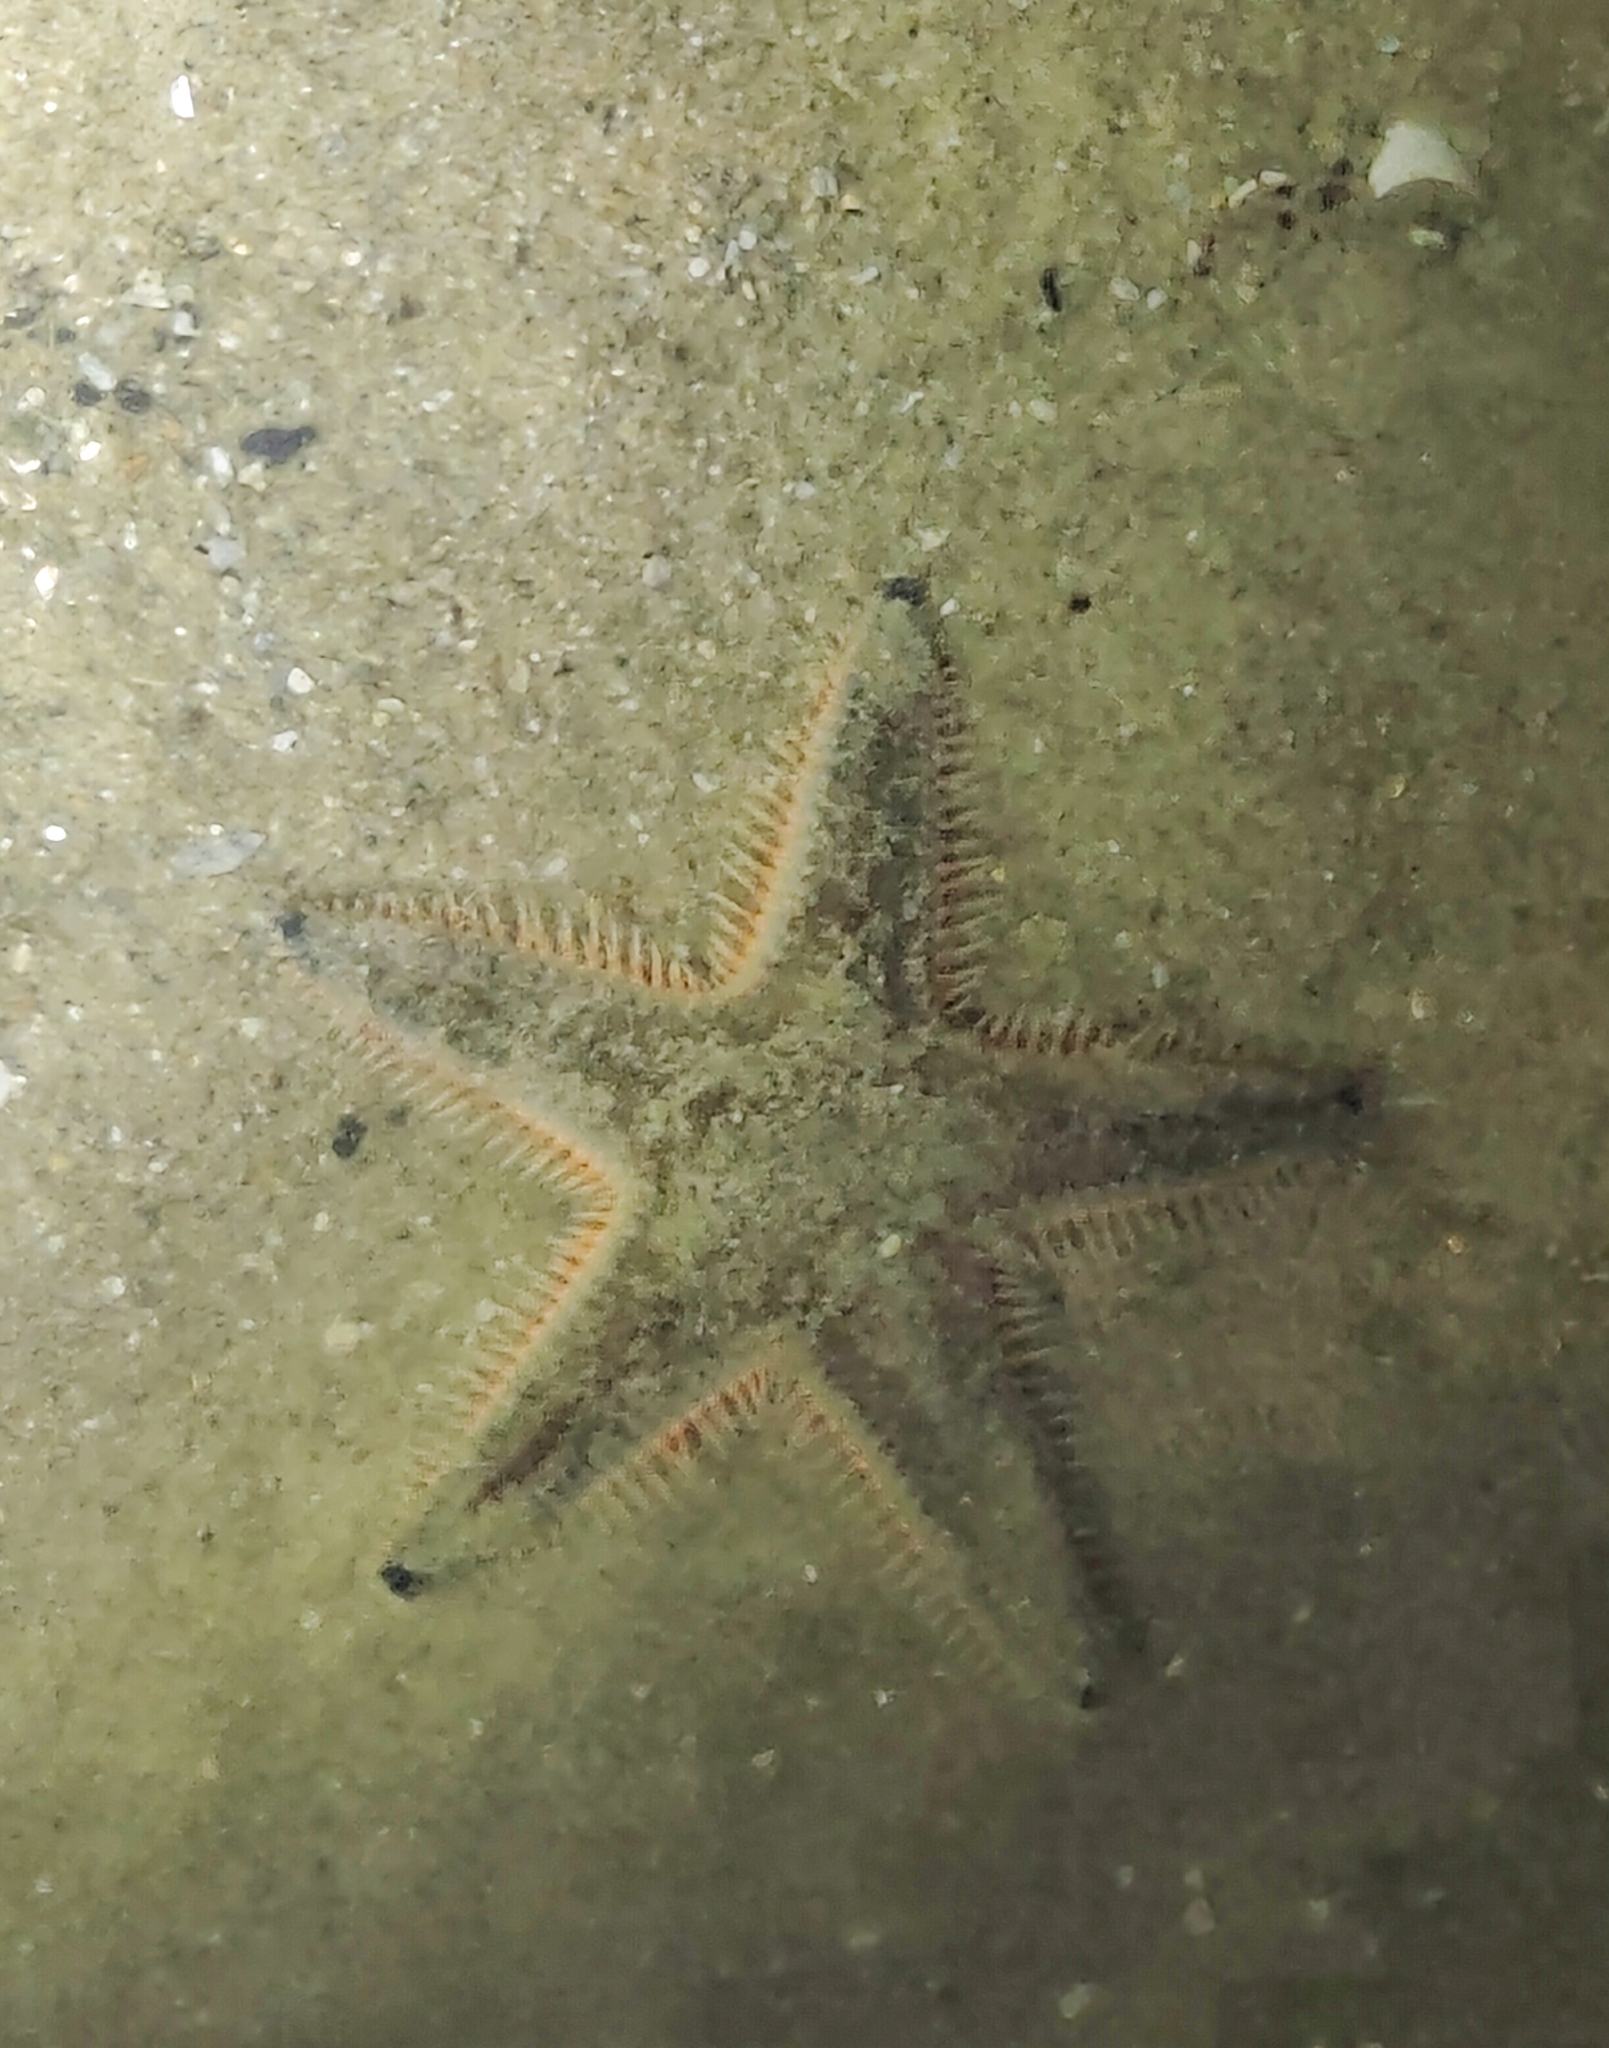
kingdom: Animalia
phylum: Echinodermata
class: Asteroidea
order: Valvatida
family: Archasteridae
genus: Archaster
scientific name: Archaster typicus
